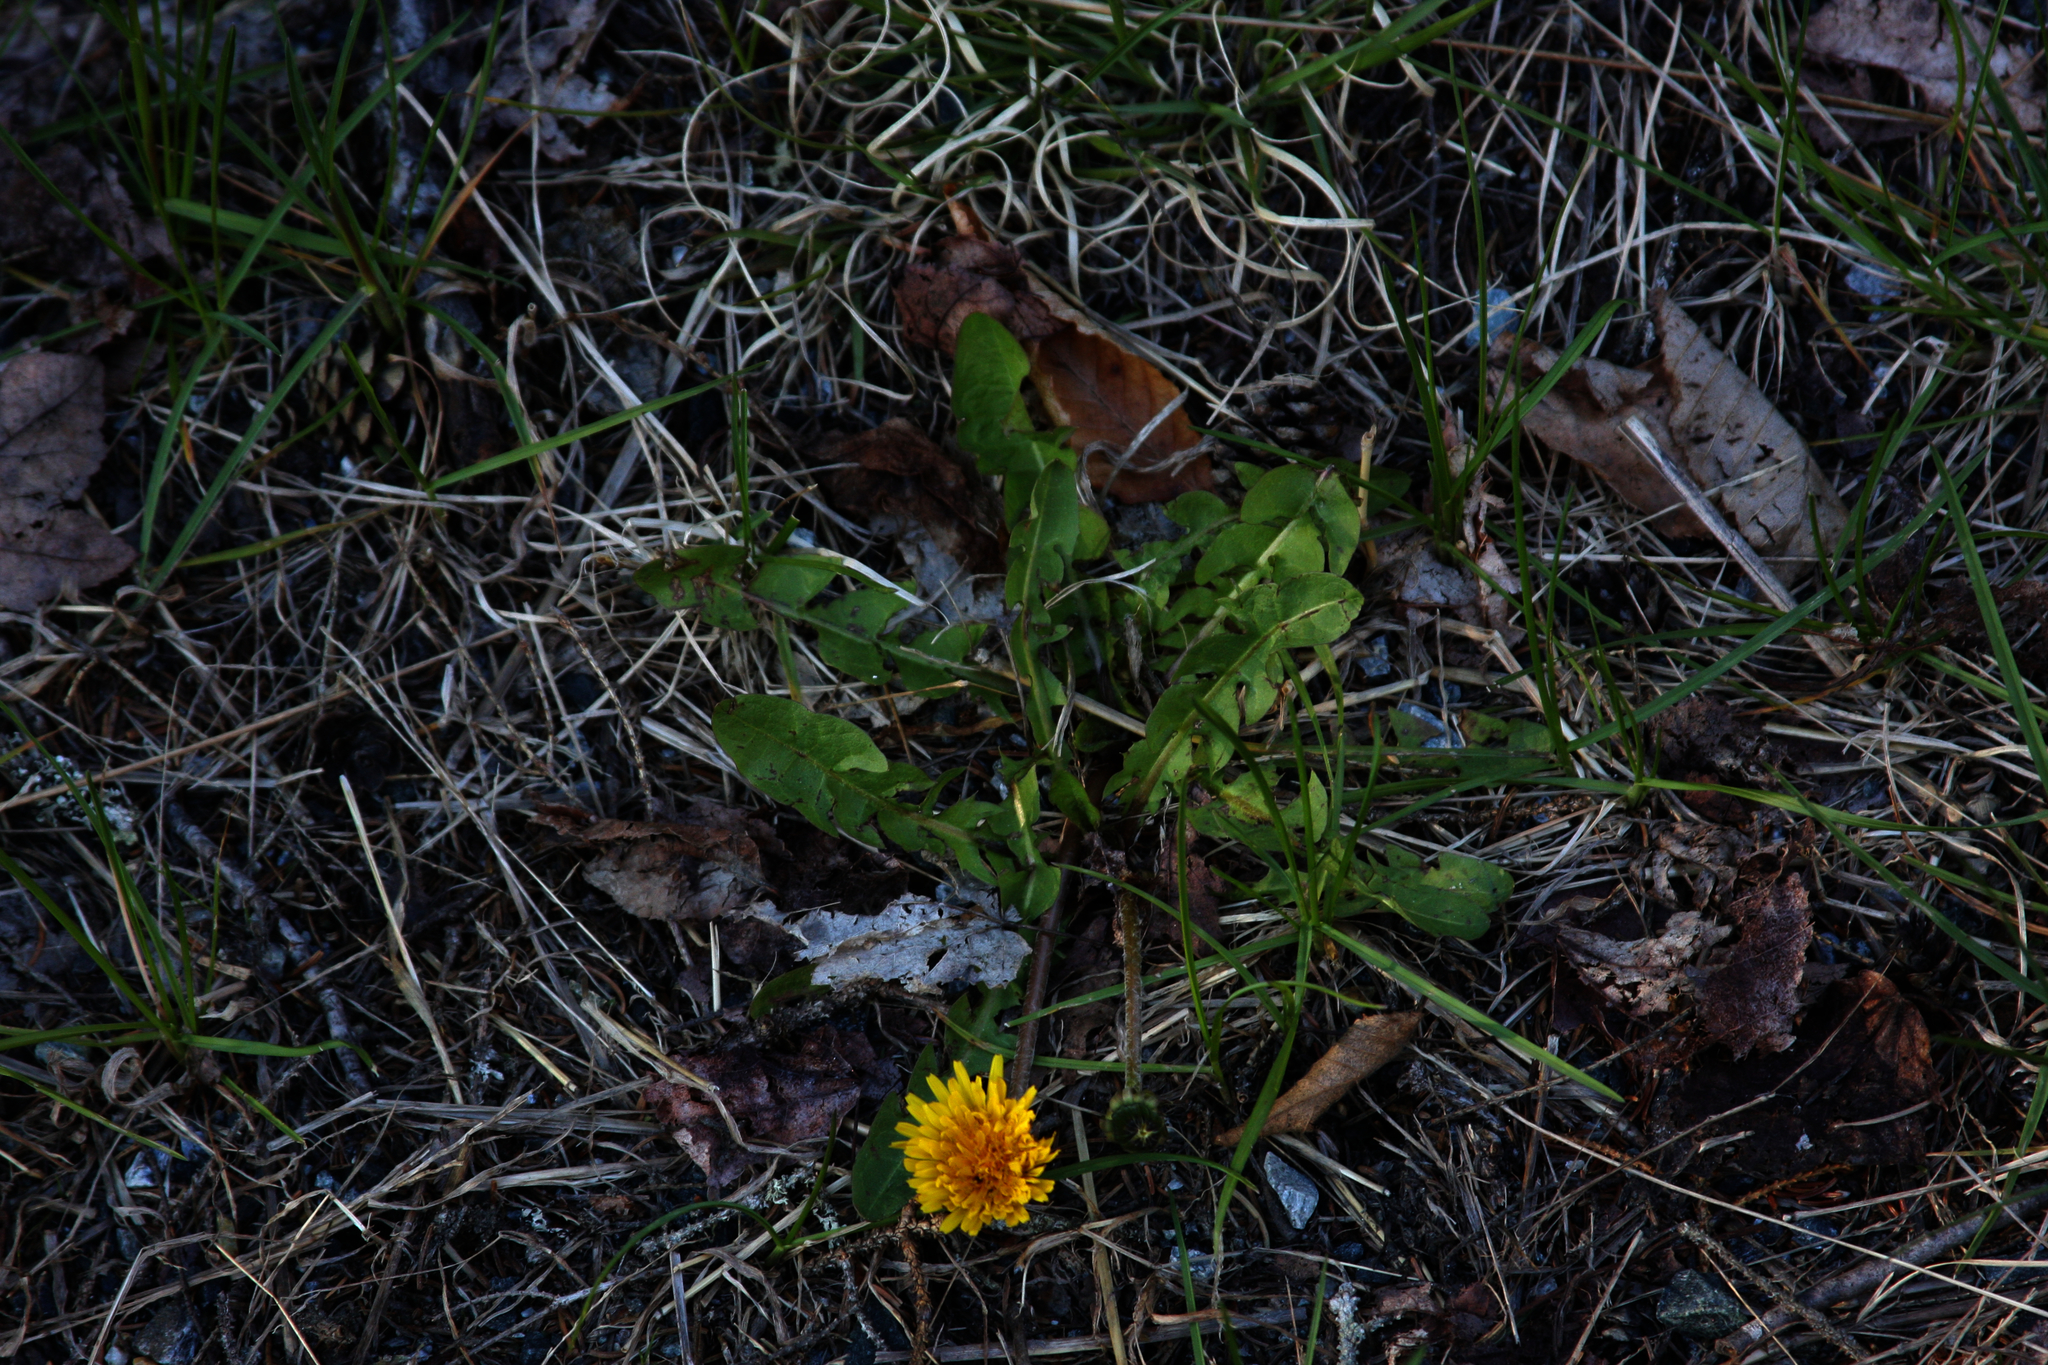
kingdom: Plantae
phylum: Tracheophyta
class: Magnoliopsida
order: Asterales
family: Asteraceae
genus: Taraxacum
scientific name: Taraxacum officinale
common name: Common dandelion
